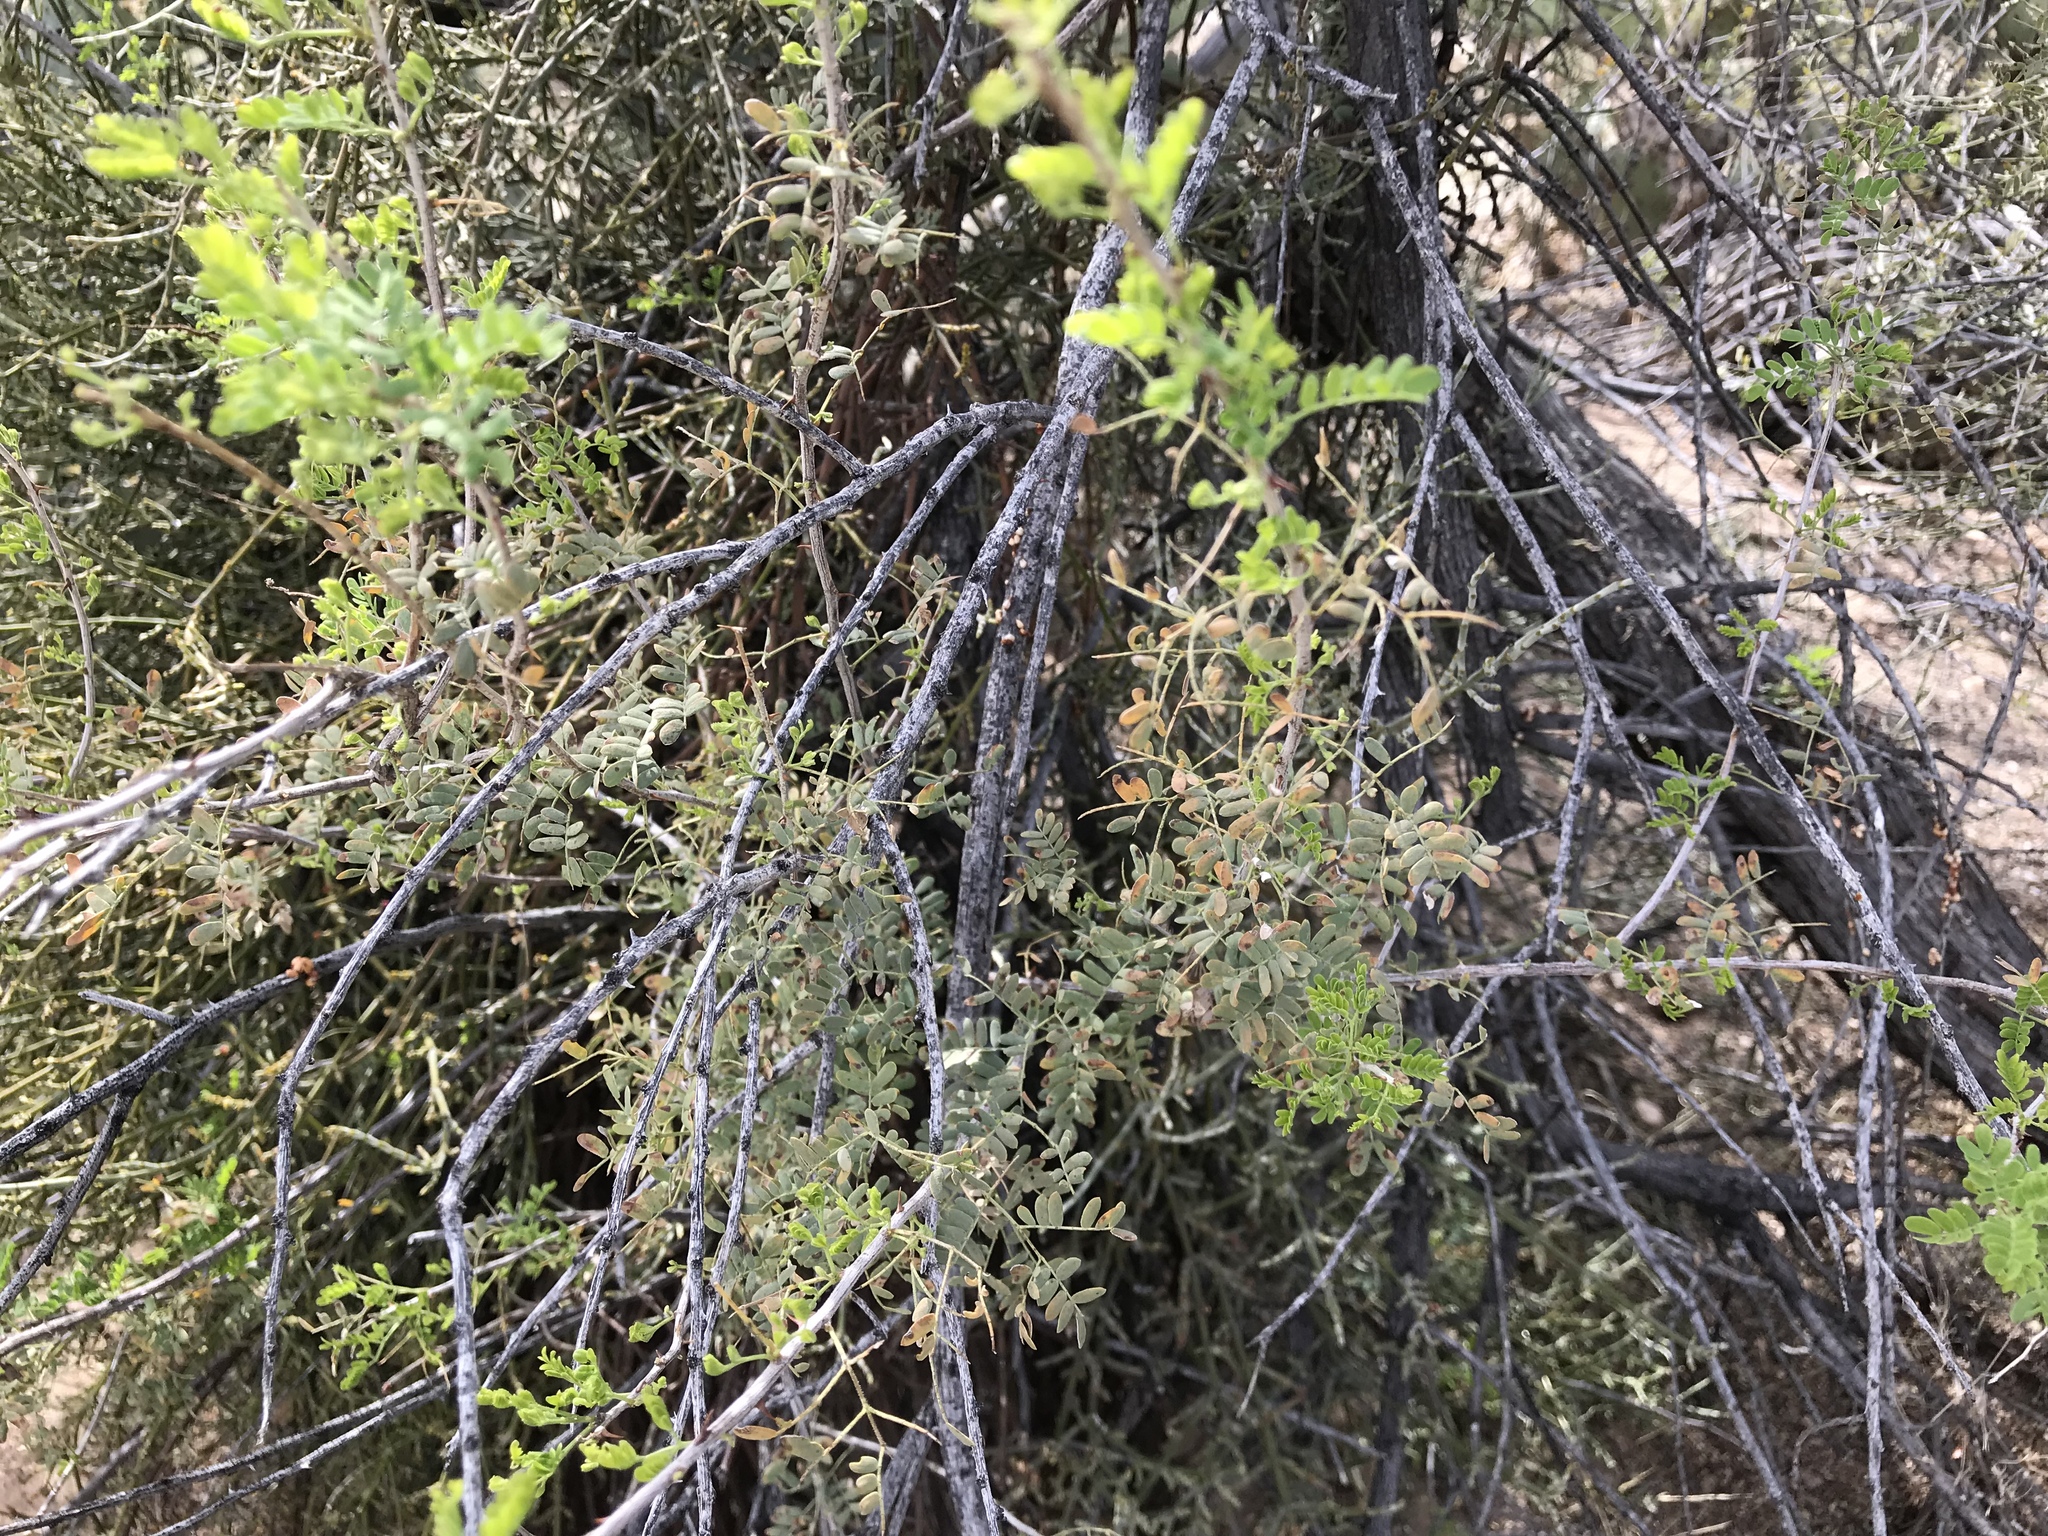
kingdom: Plantae
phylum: Tracheophyta
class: Magnoliopsida
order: Fabales
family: Fabaceae
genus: Senegalia
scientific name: Senegalia greggii
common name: Texas-mimosa
